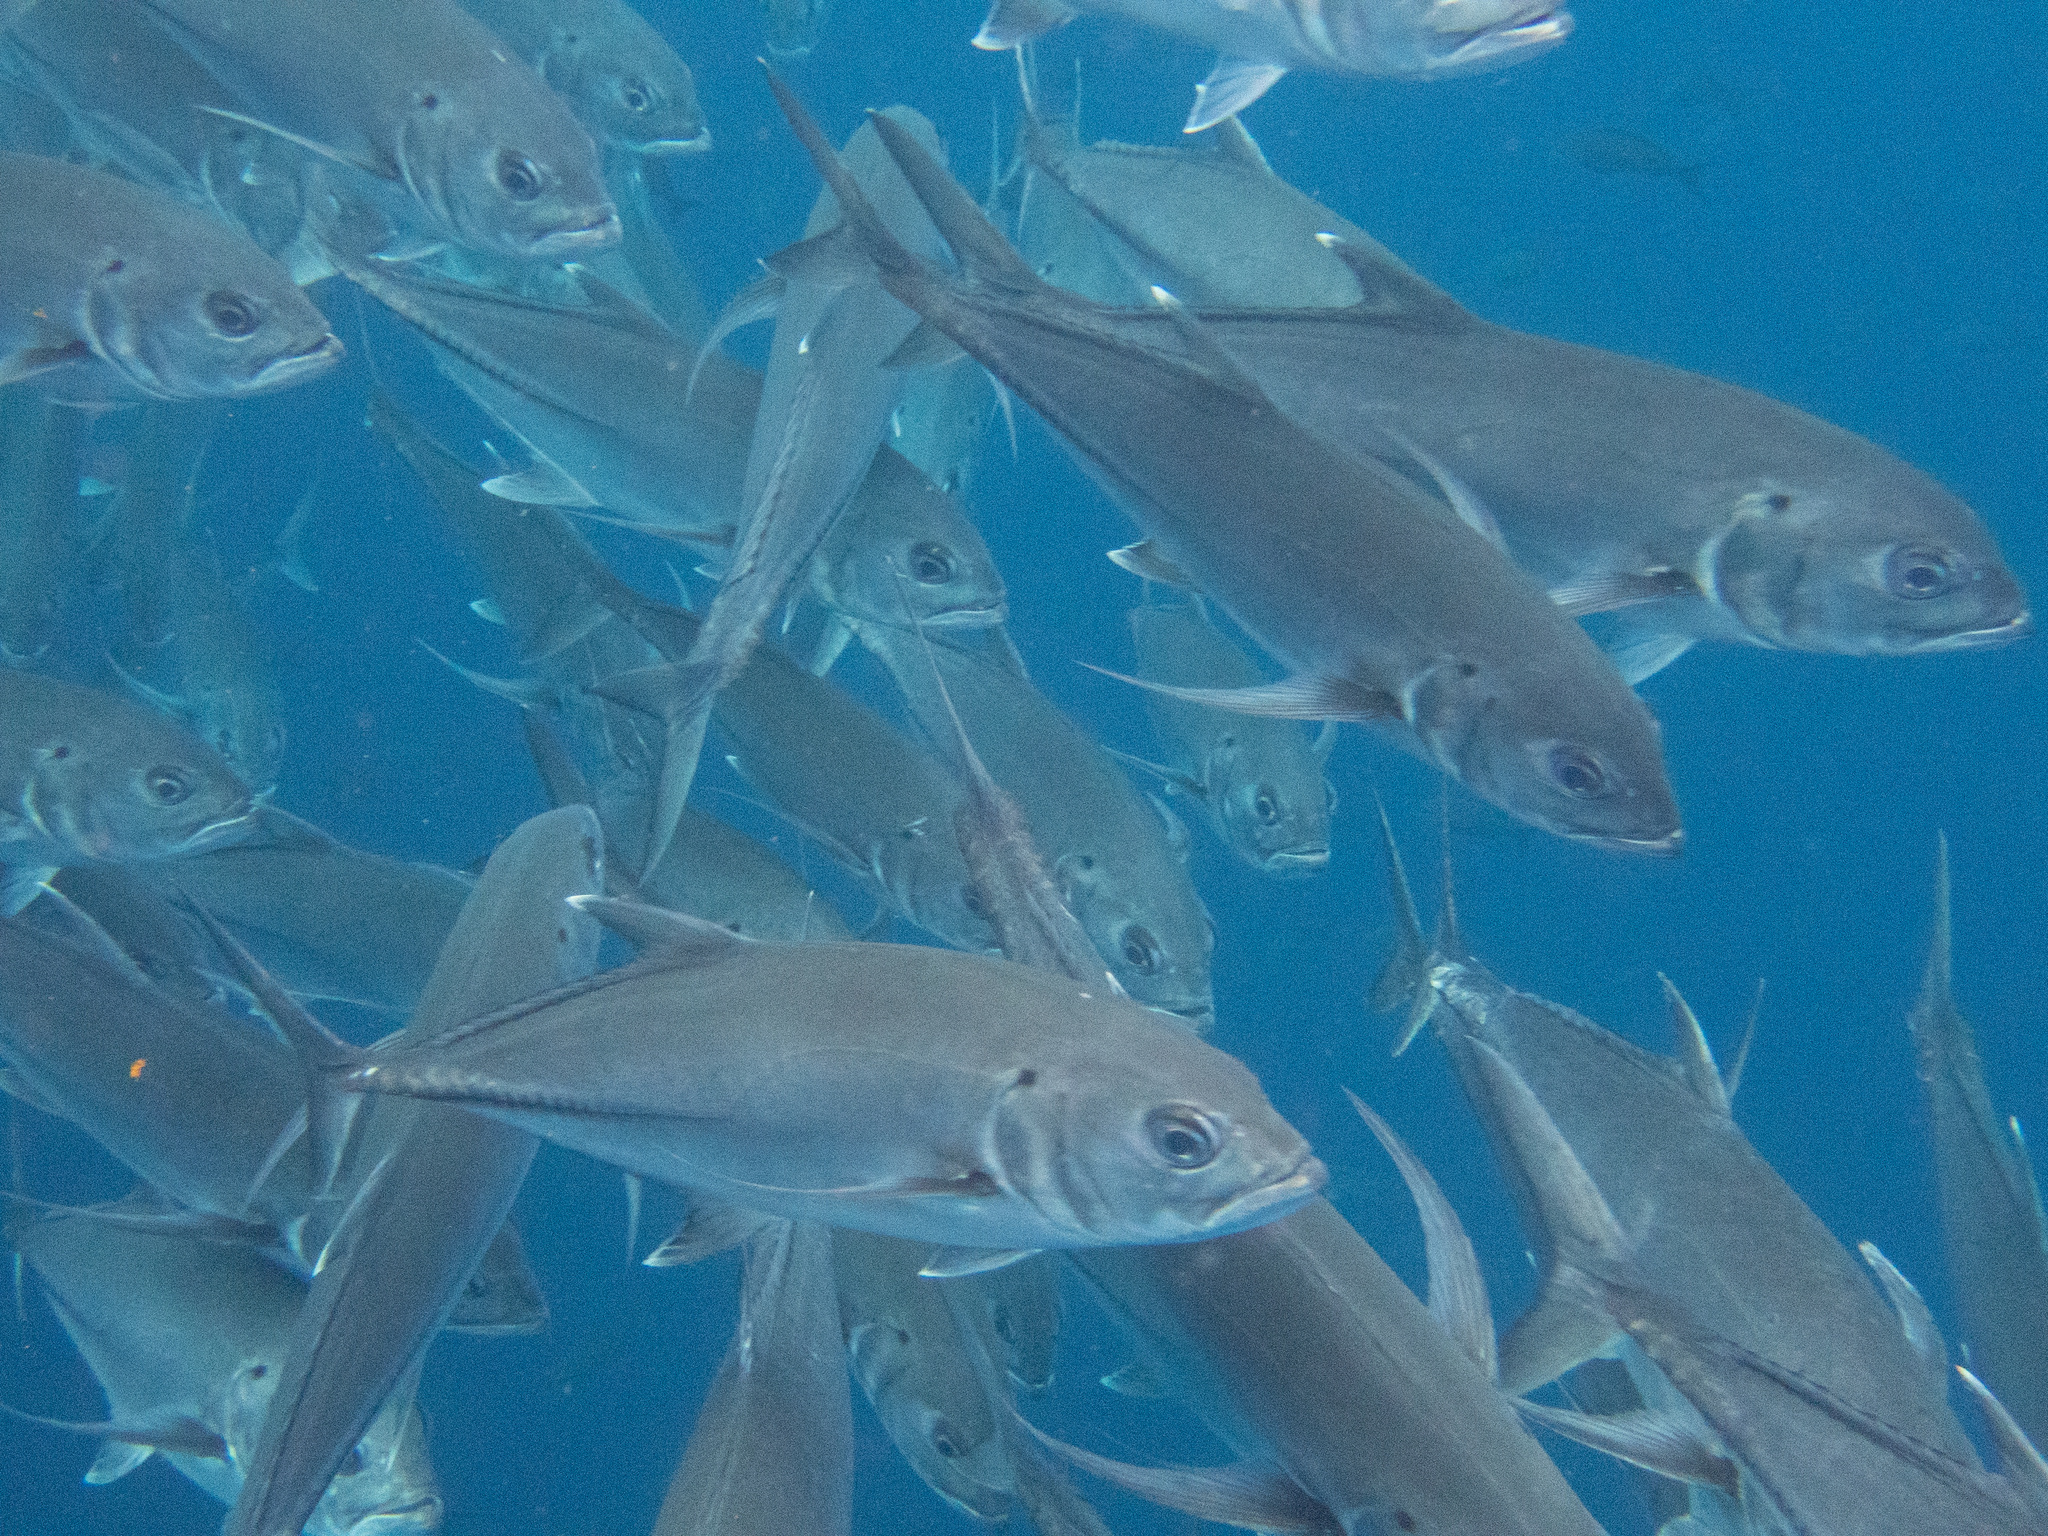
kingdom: Animalia
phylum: Chordata
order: Perciformes
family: Carangidae
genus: Caranx
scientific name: Caranx sexfasciatus
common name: Bigeye trevally
